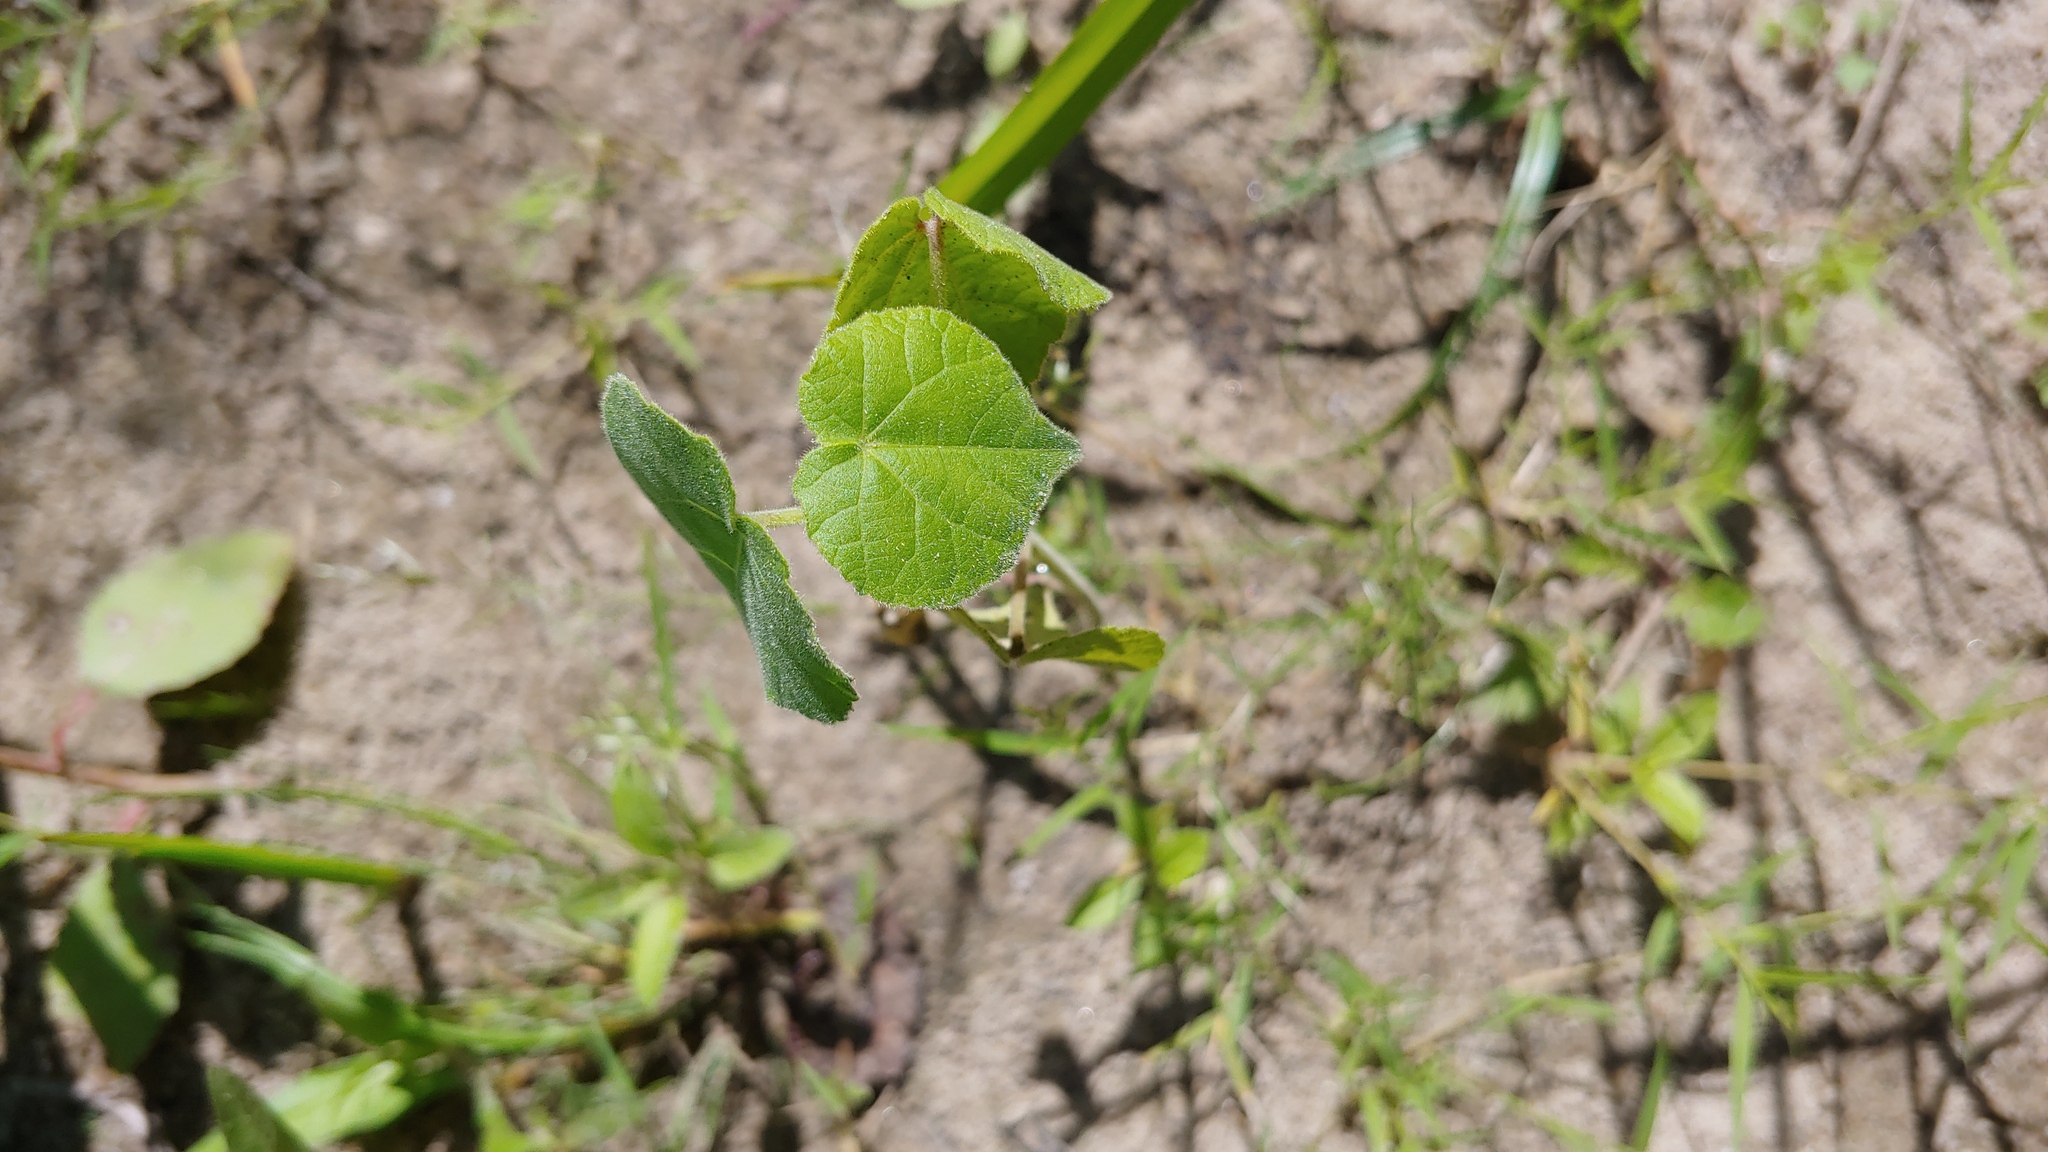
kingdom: Plantae
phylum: Tracheophyta
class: Magnoliopsida
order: Malvales
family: Malvaceae
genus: Abutilon
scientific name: Abutilon theophrasti
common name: Velvetleaf
